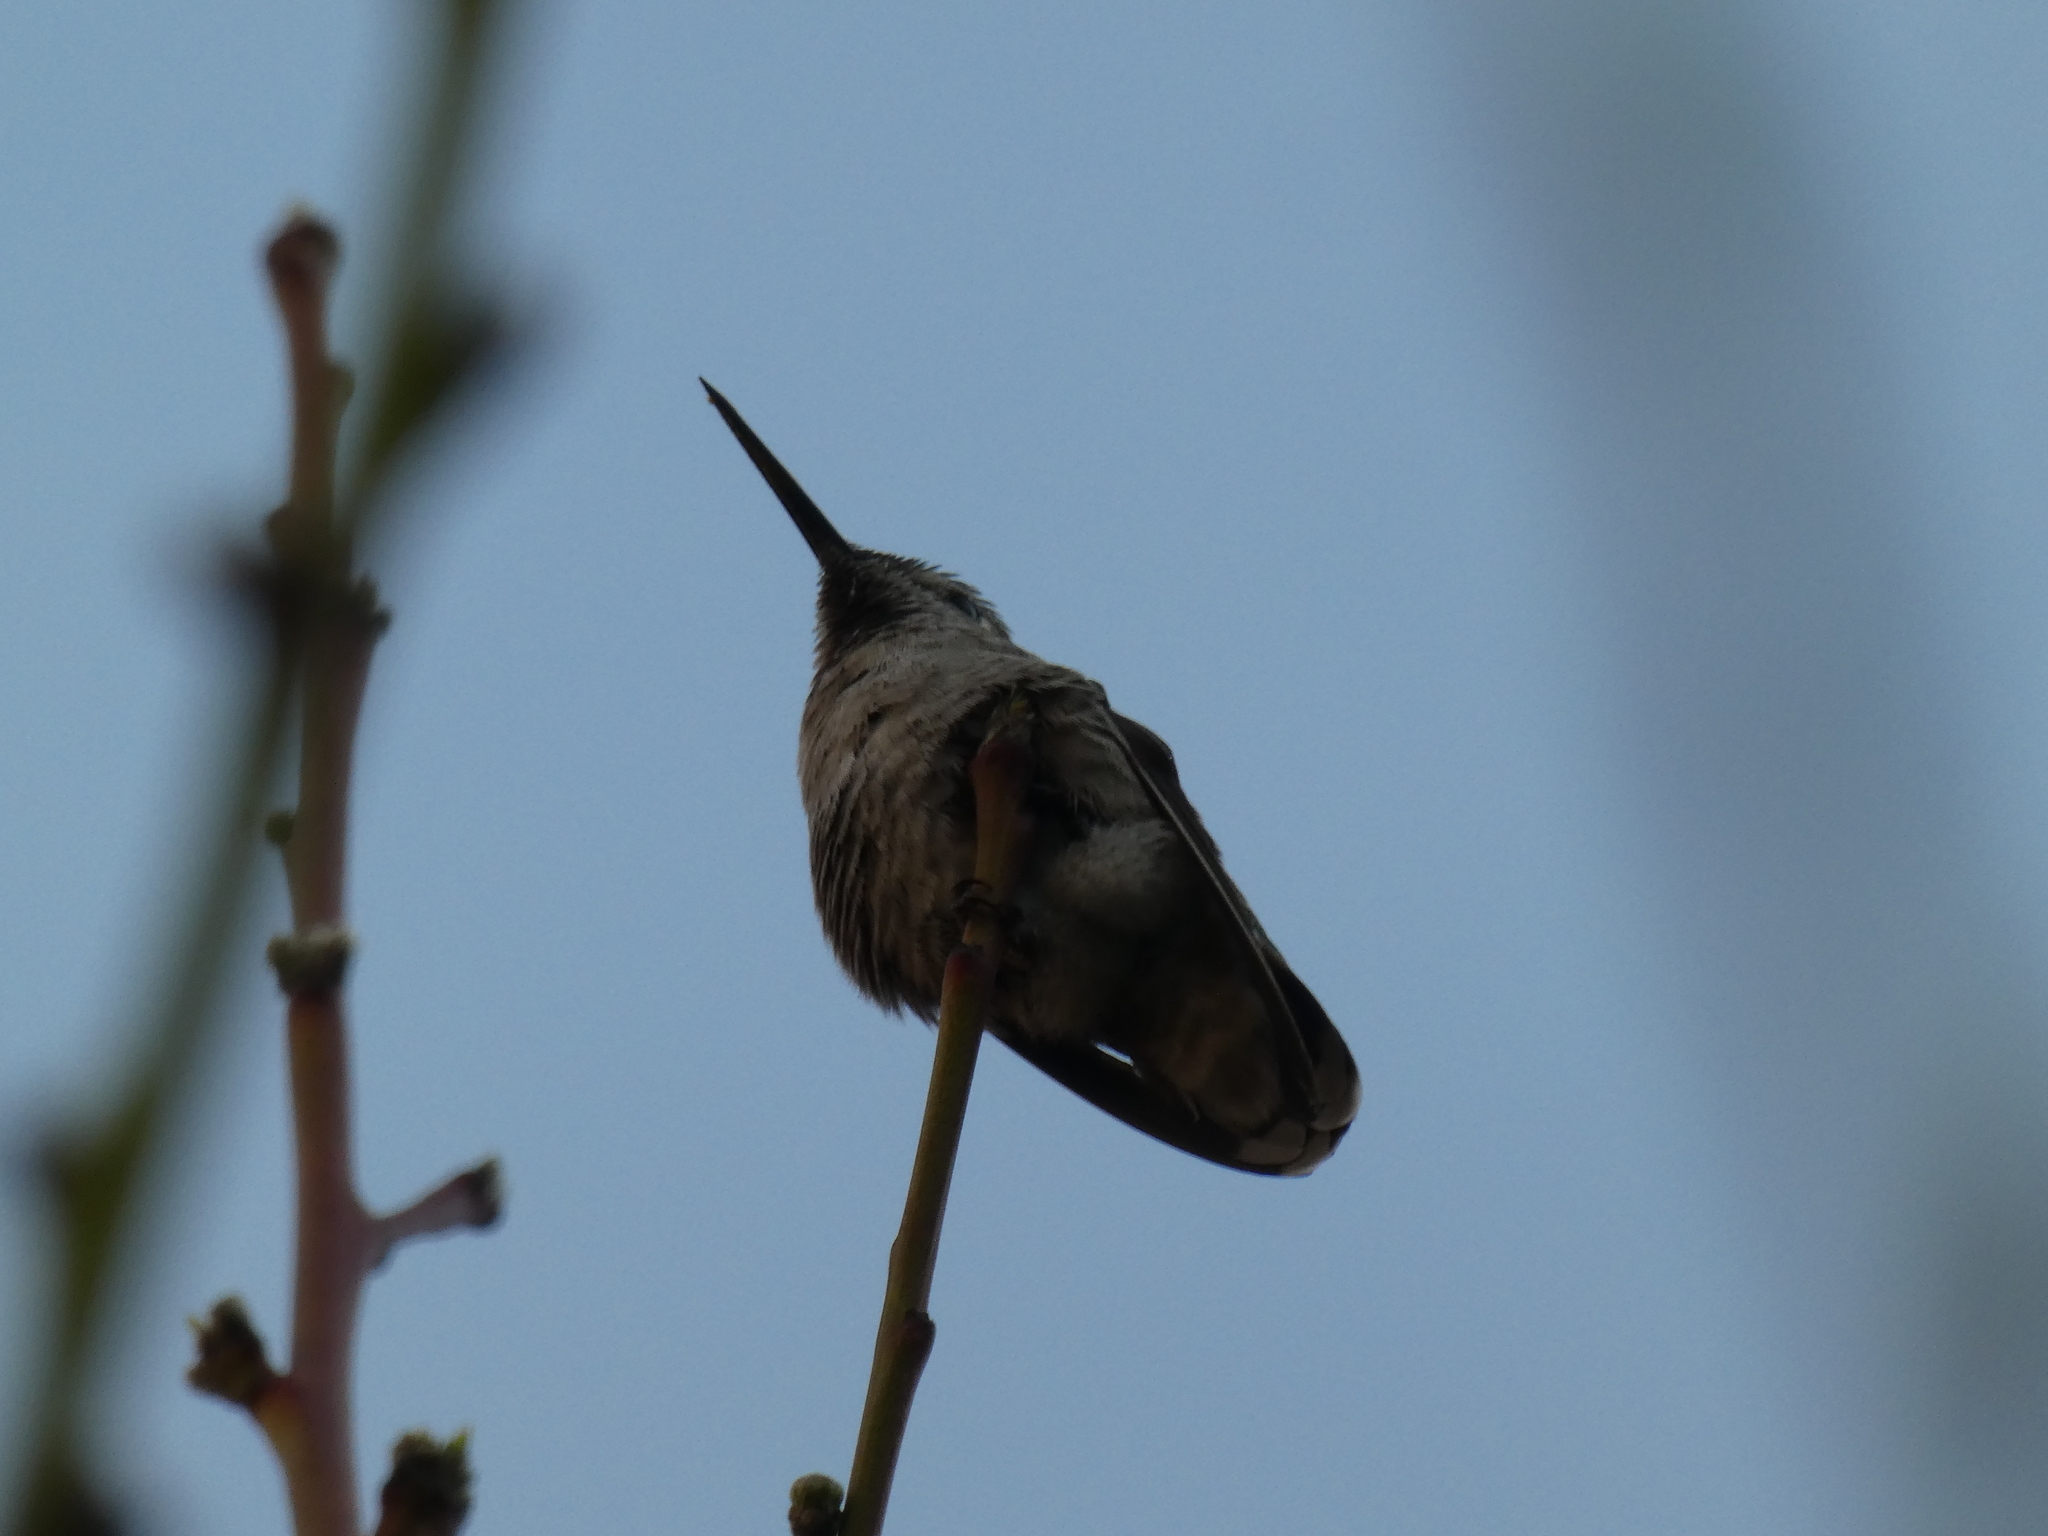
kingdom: Animalia
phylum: Chordata
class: Aves
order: Apodiformes
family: Trochilidae
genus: Calypte
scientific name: Calypte anna
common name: Anna's hummingbird
